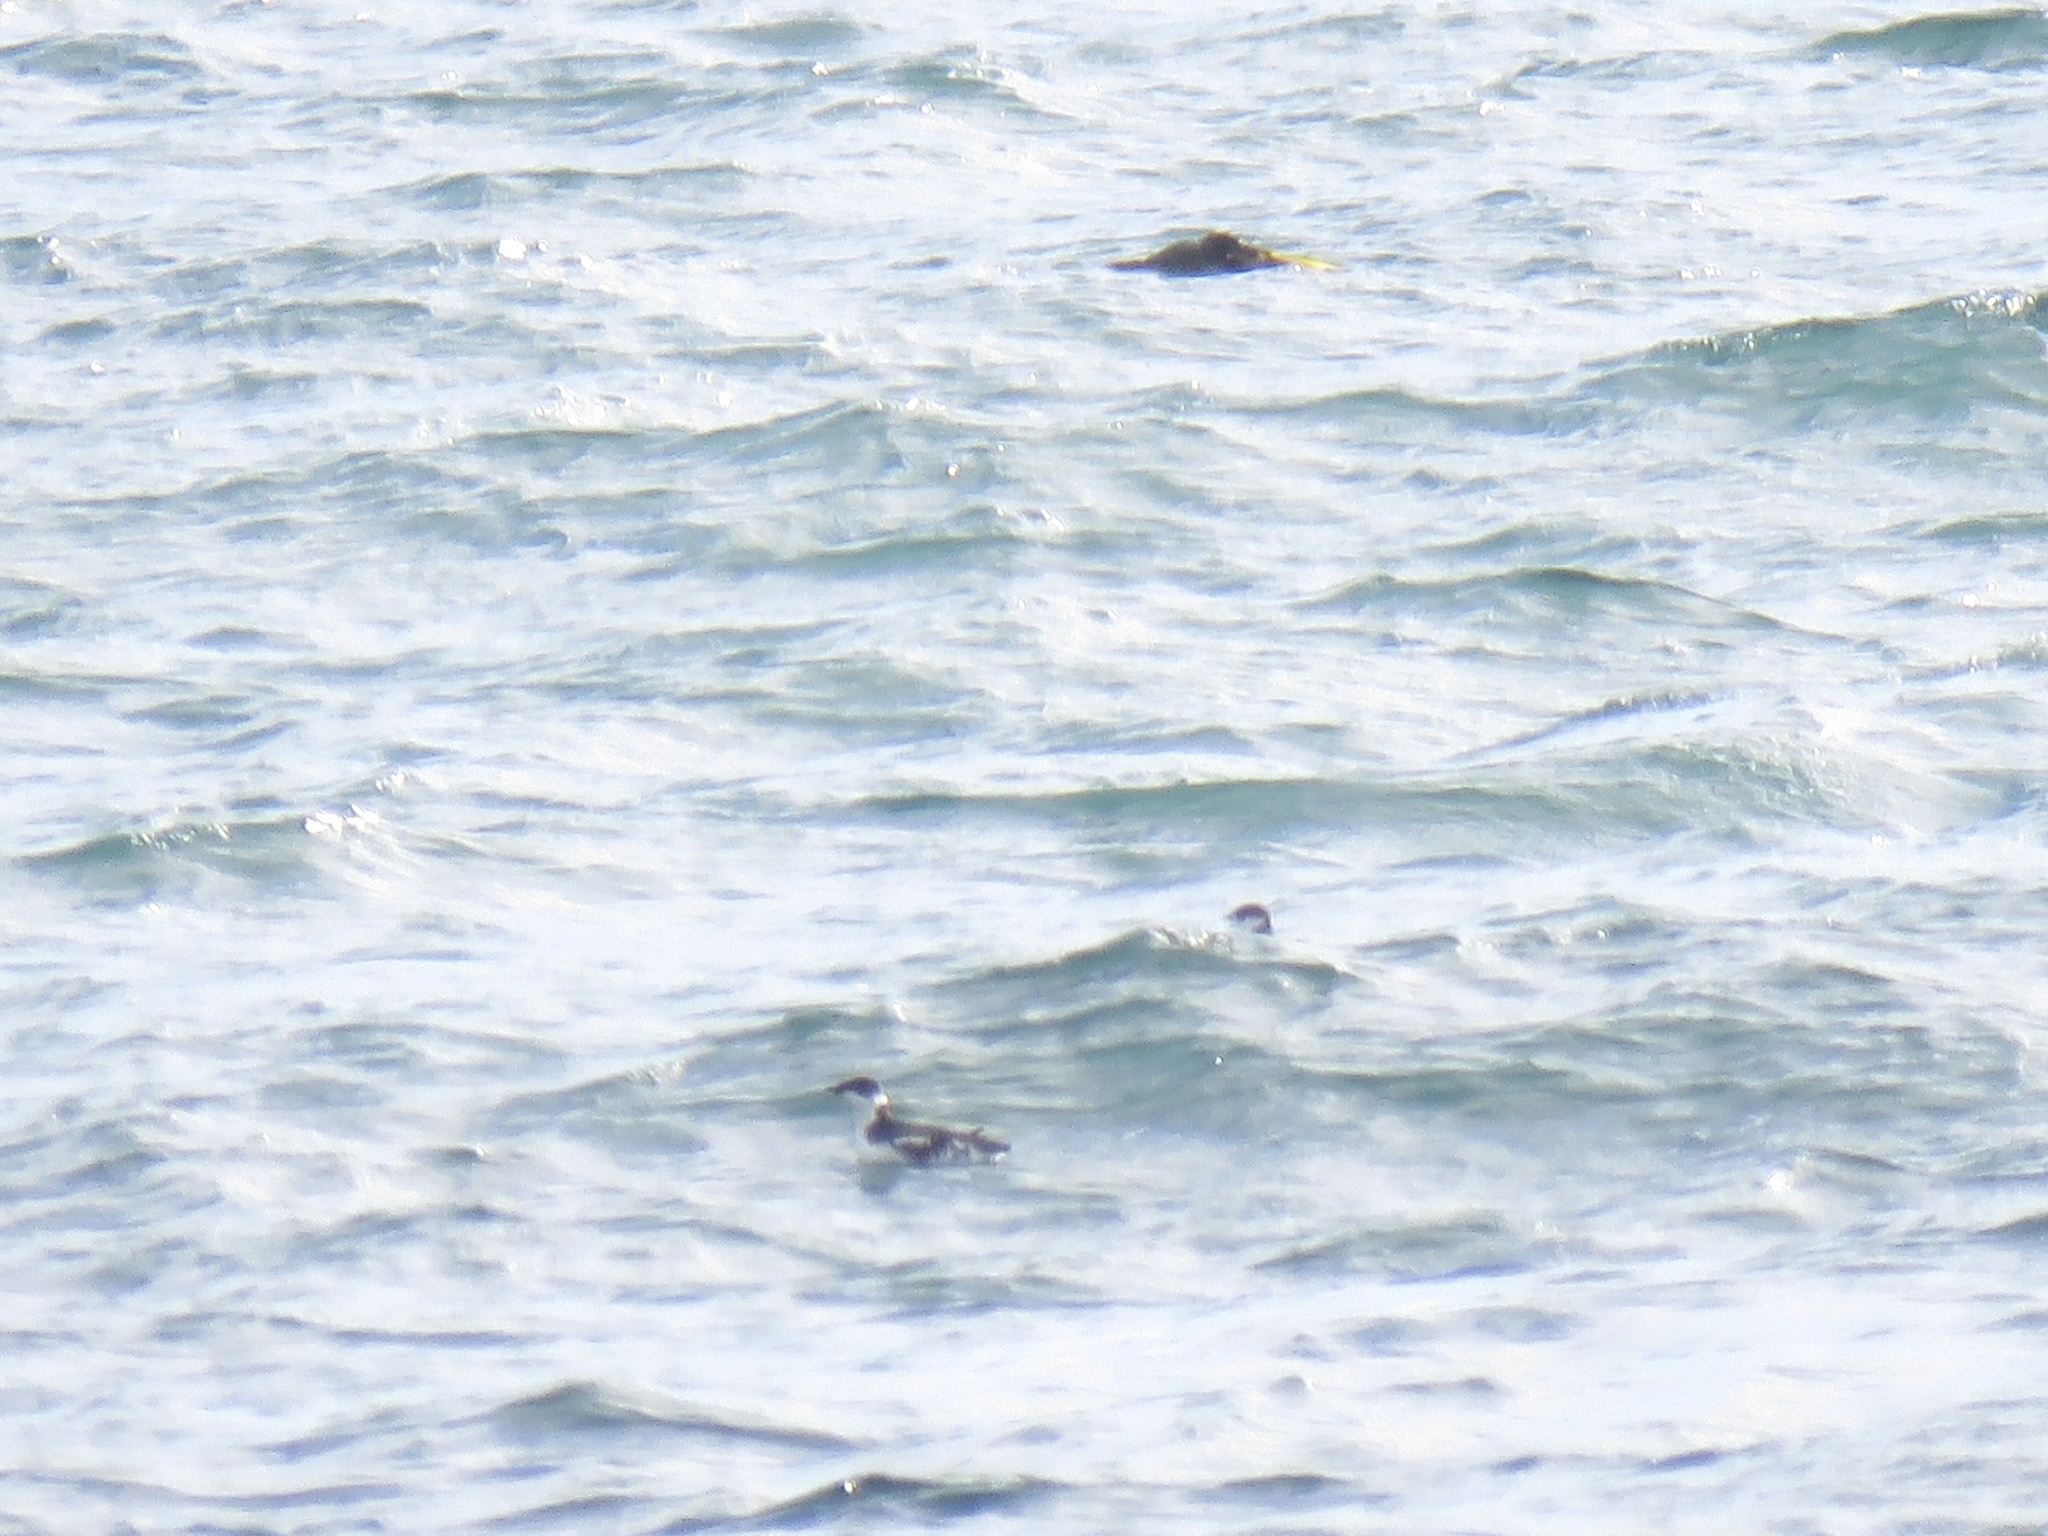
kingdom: Animalia
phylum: Chordata
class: Aves
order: Charadriiformes
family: Alcidae
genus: Brachyramphus
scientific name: Brachyramphus marmoratus
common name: Marbled murrelet
